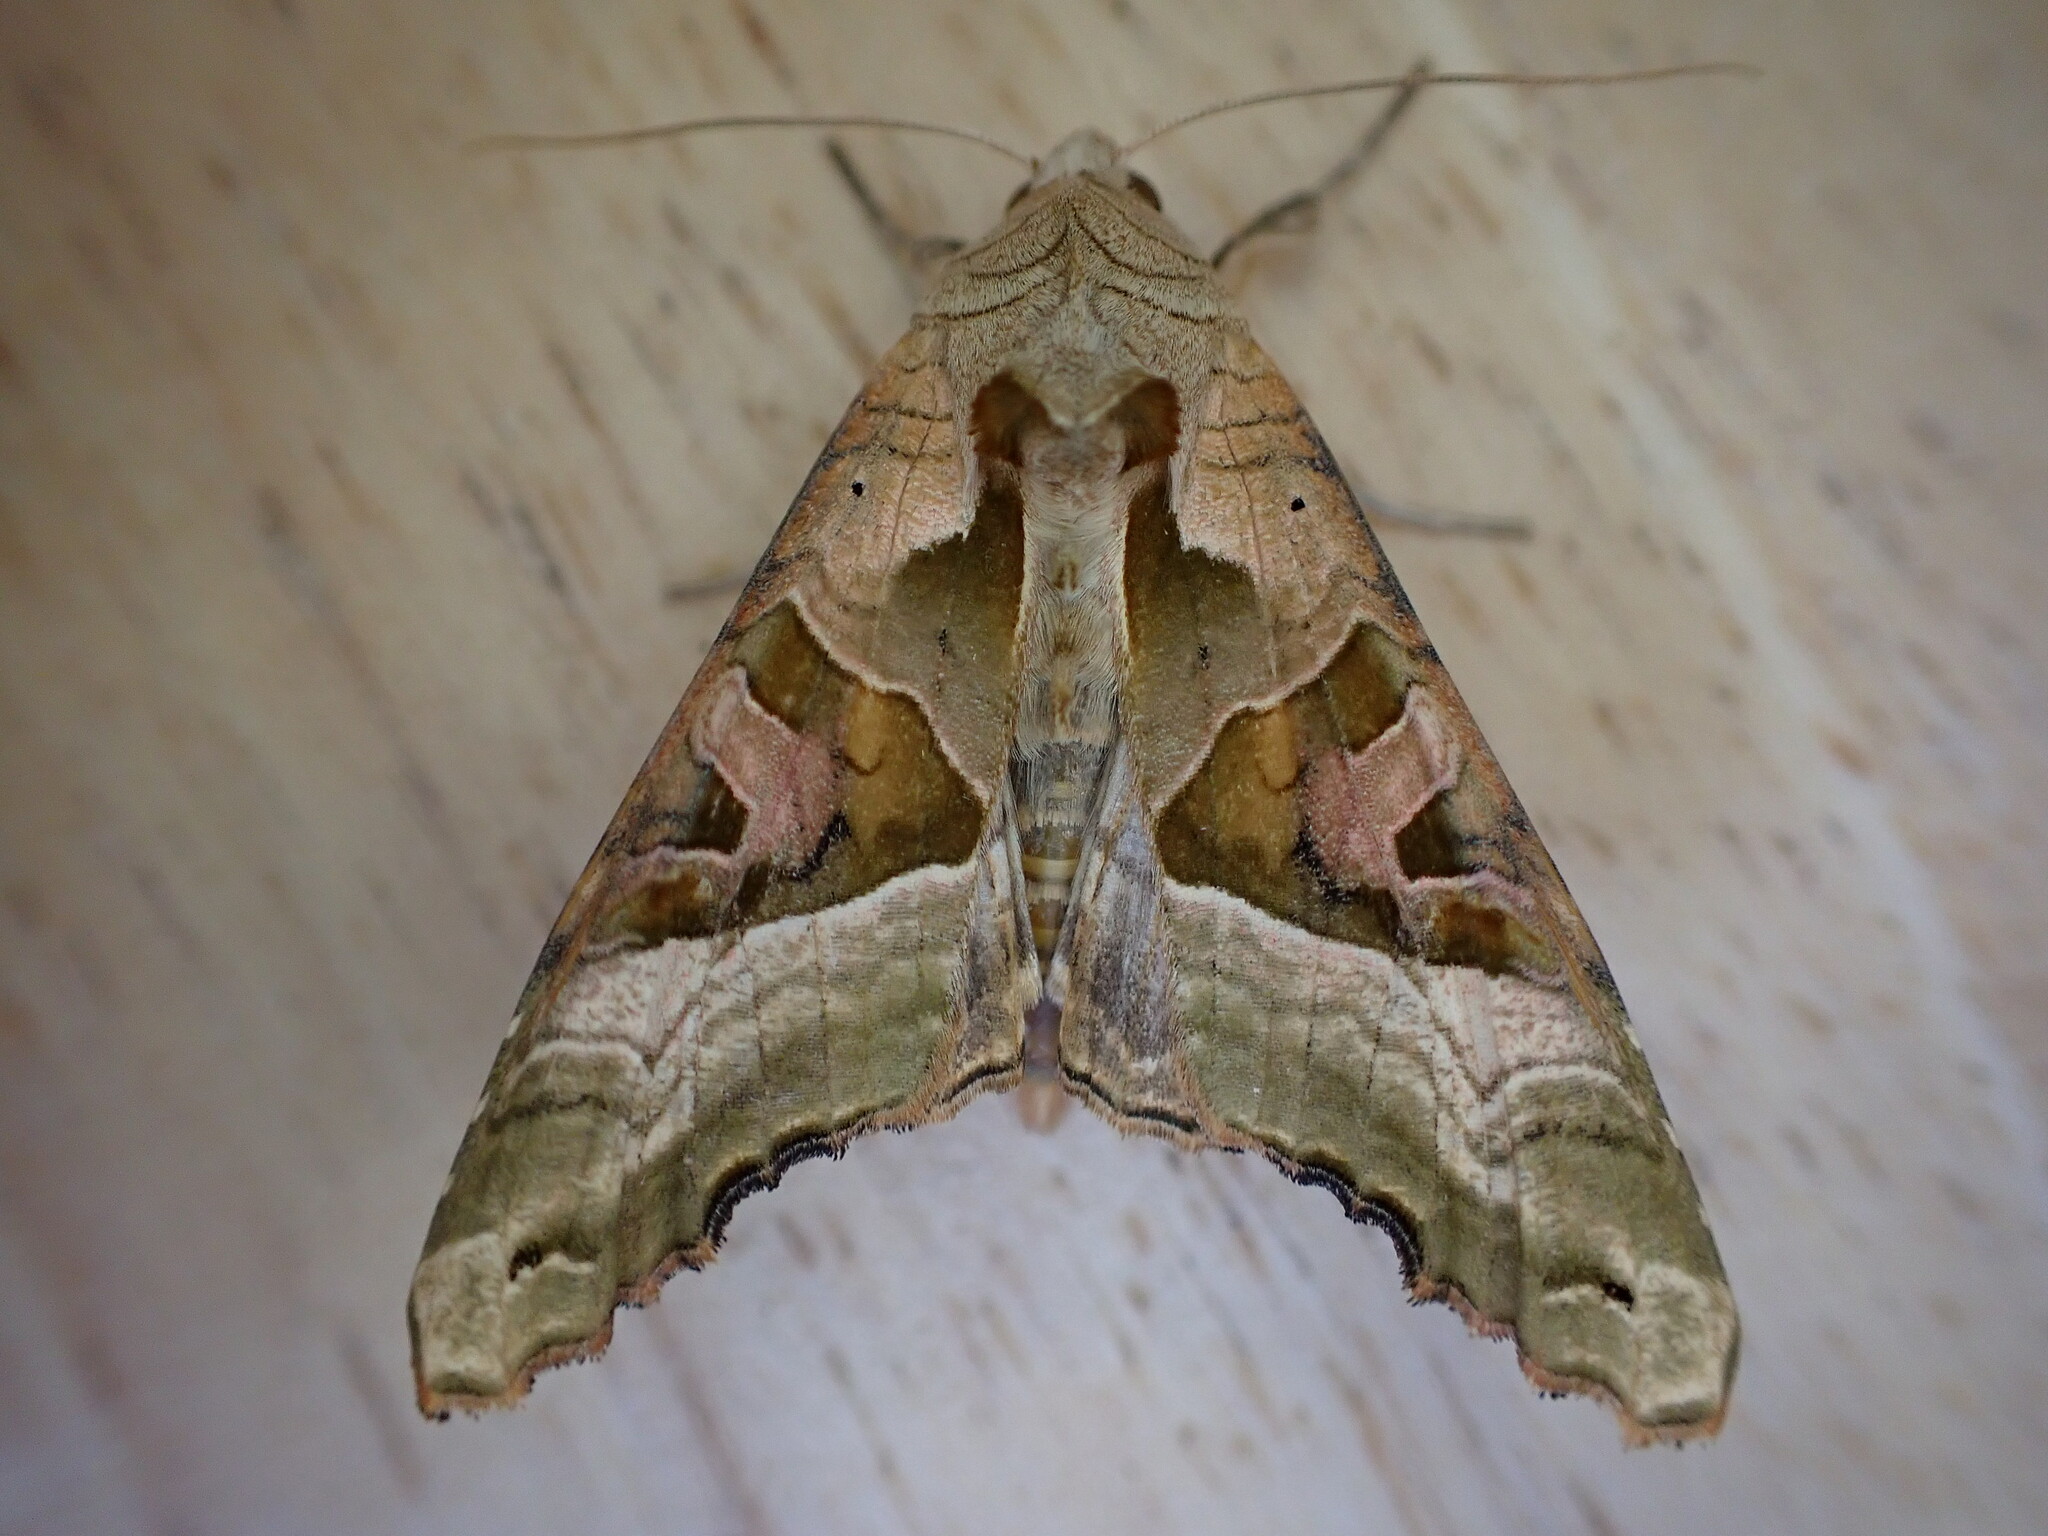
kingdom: Animalia
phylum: Arthropoda
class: Insecta
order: Lepidoptera
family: Noctuidae
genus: Phlogophora
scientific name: Phlogophora meticulosa
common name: Angle shades
